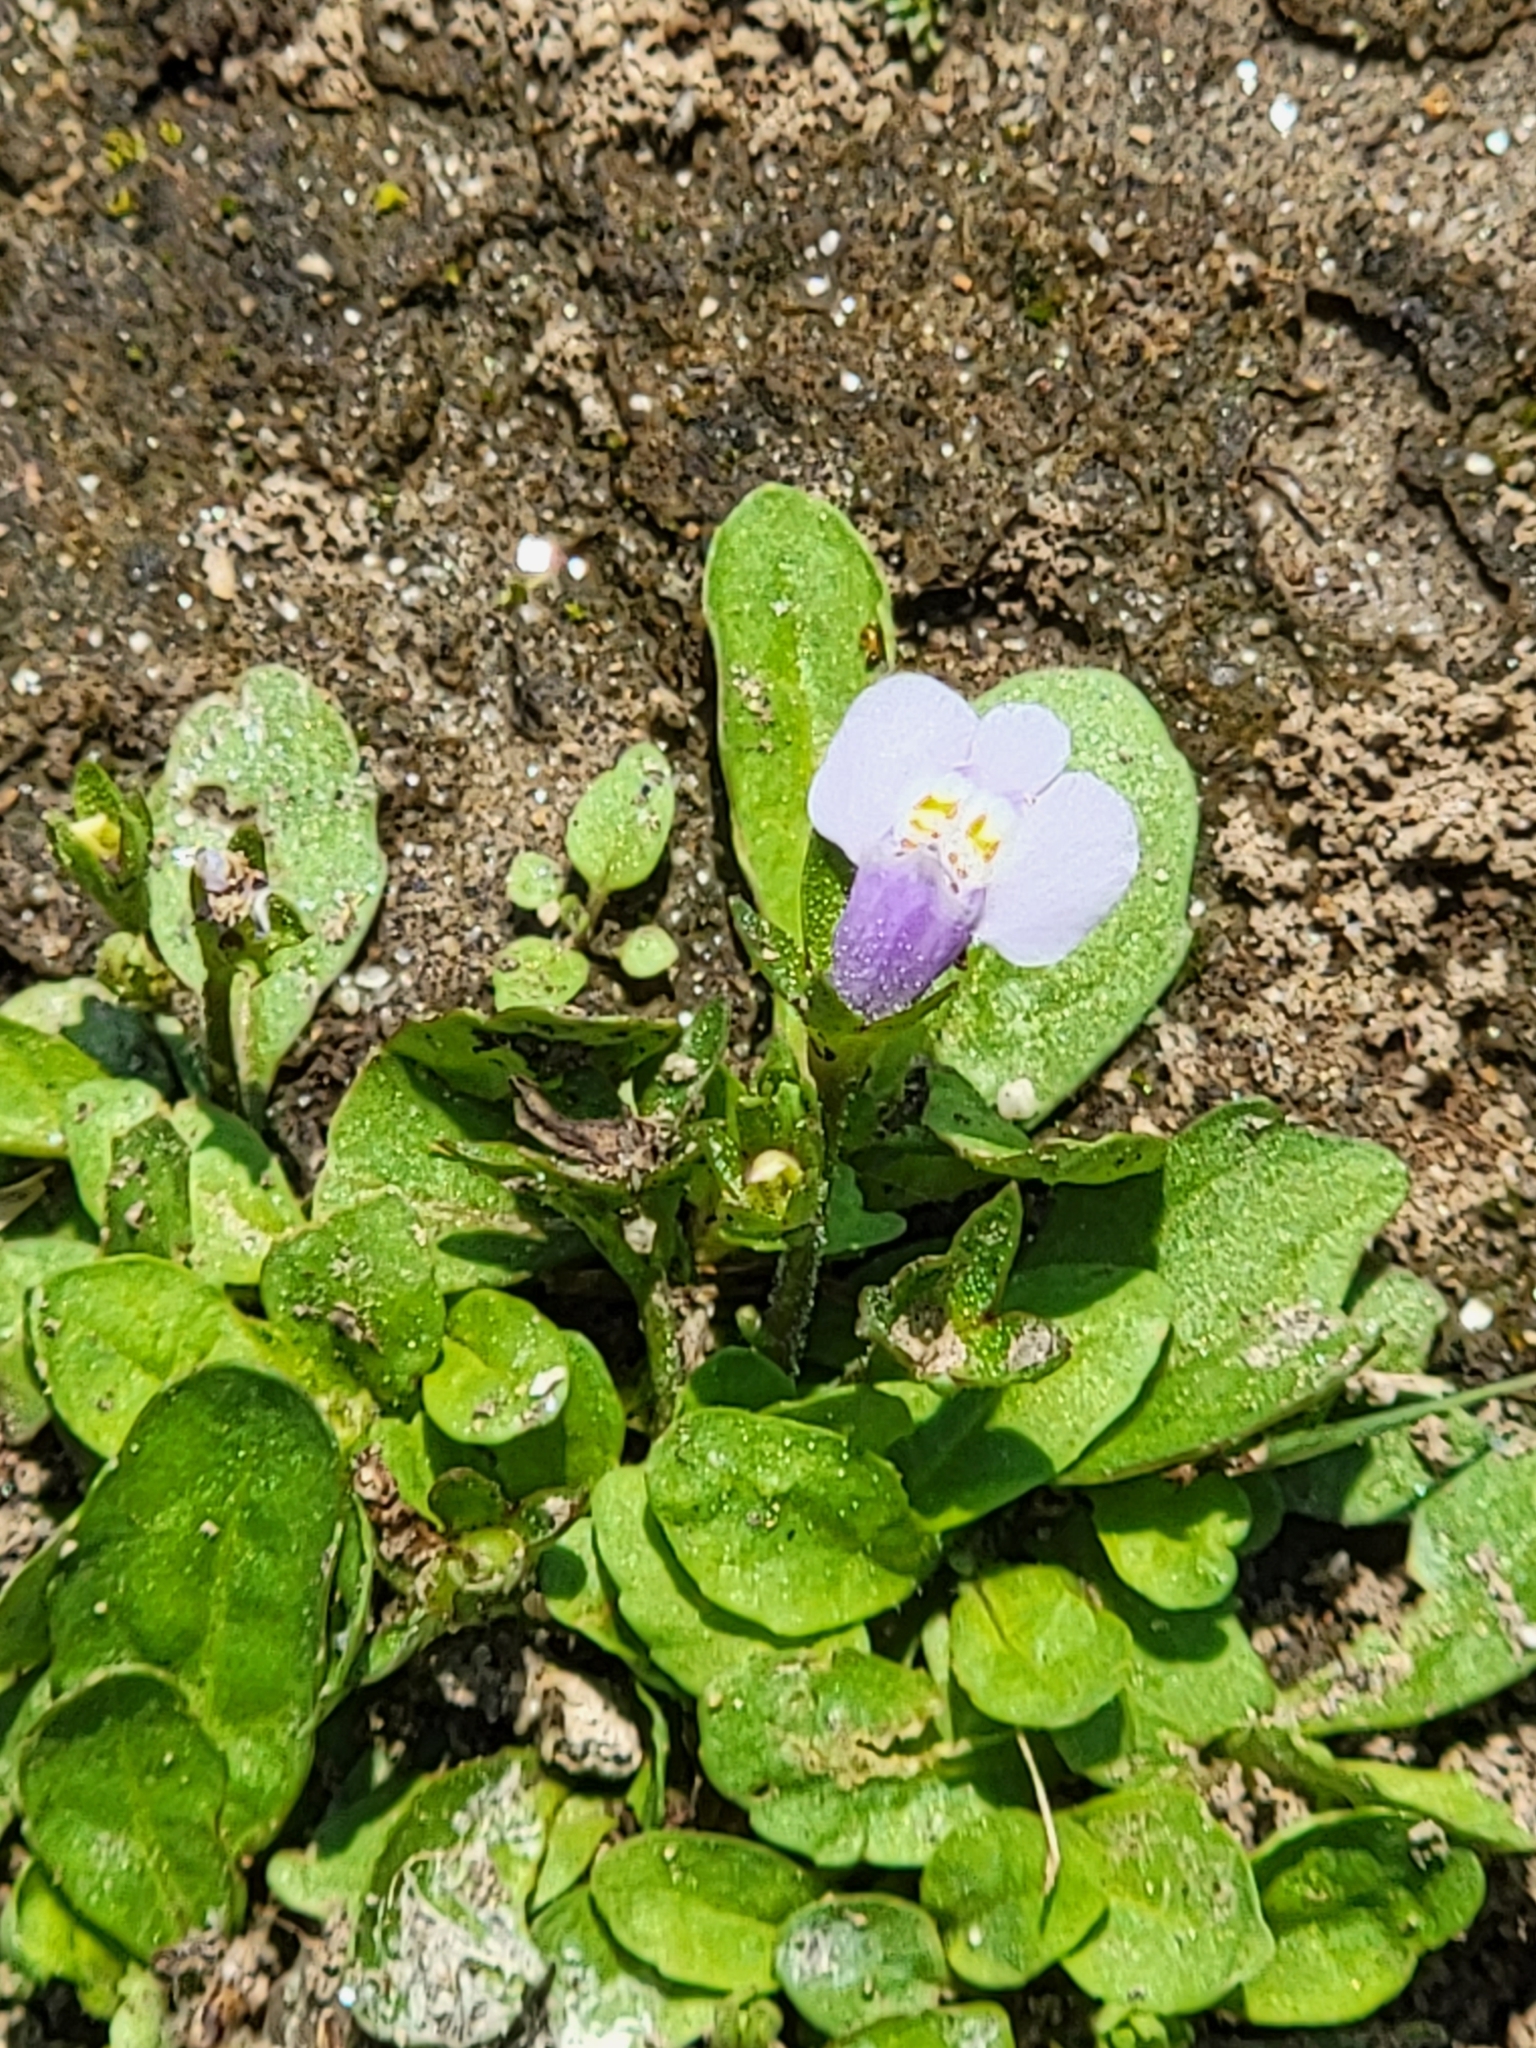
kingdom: Plantae
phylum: Tracheophyta
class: Magnoliopsida
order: Lamiales
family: Mazaceae
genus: Mazus
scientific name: Mazus pumilus
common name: Japanese mazus
